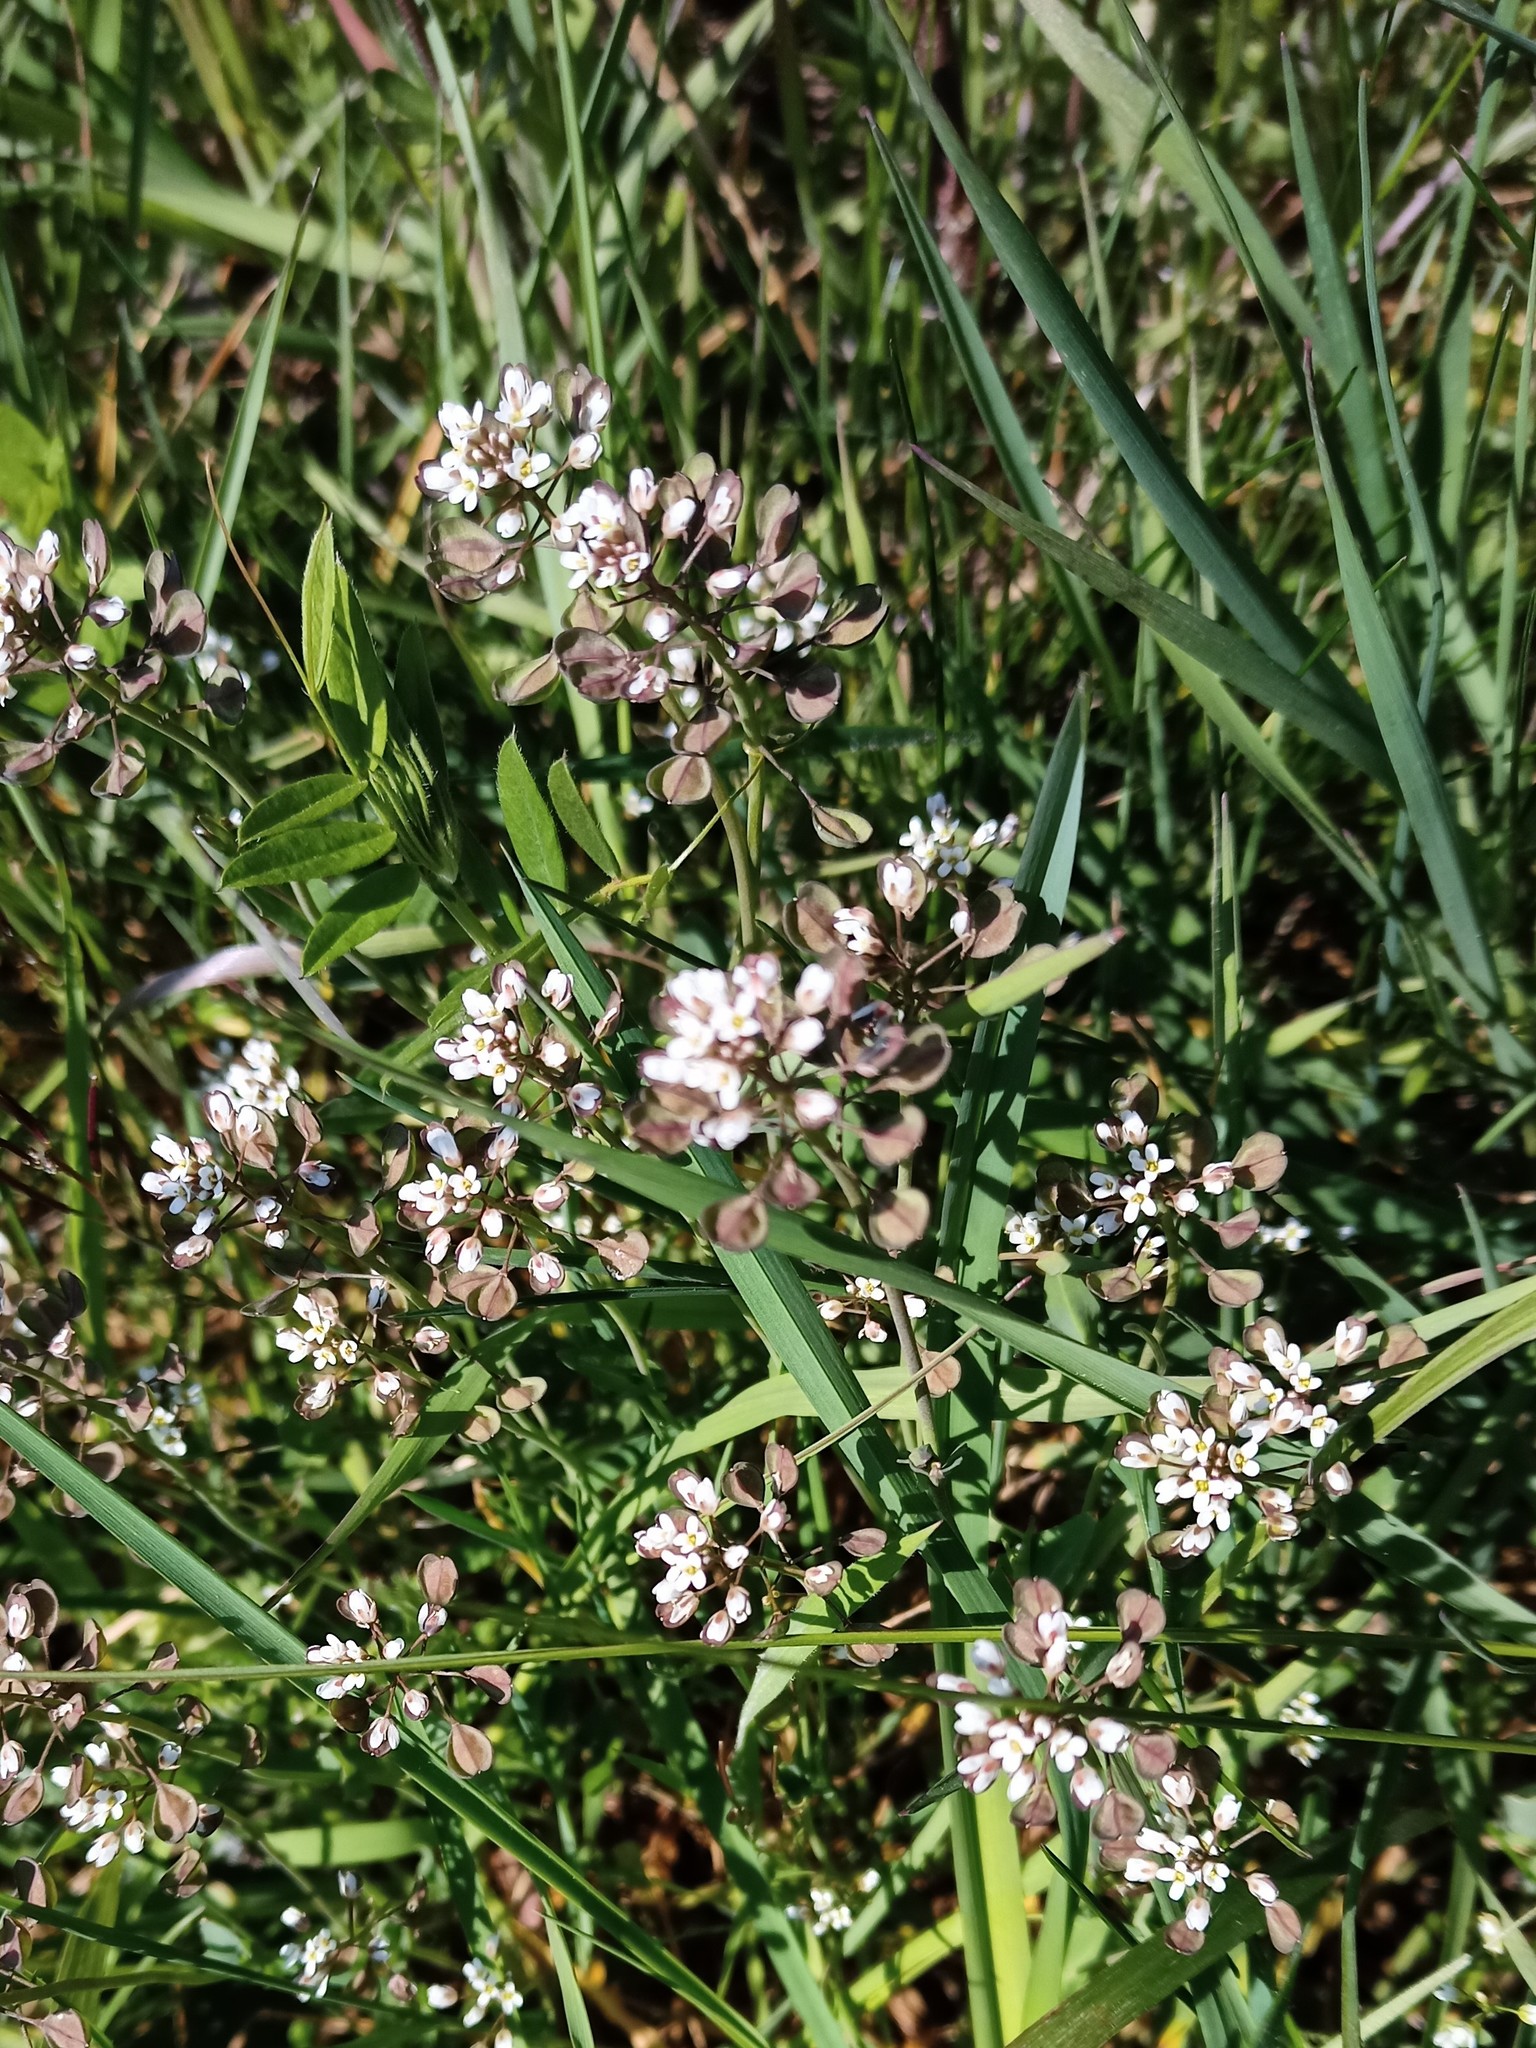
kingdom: Plantae
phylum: Tracheophyta
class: Magnoliopsida
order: Brassicales
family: Brassicaceae
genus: Noccaea
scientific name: Noccaea perfoliata
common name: Perfoliate pennycress
